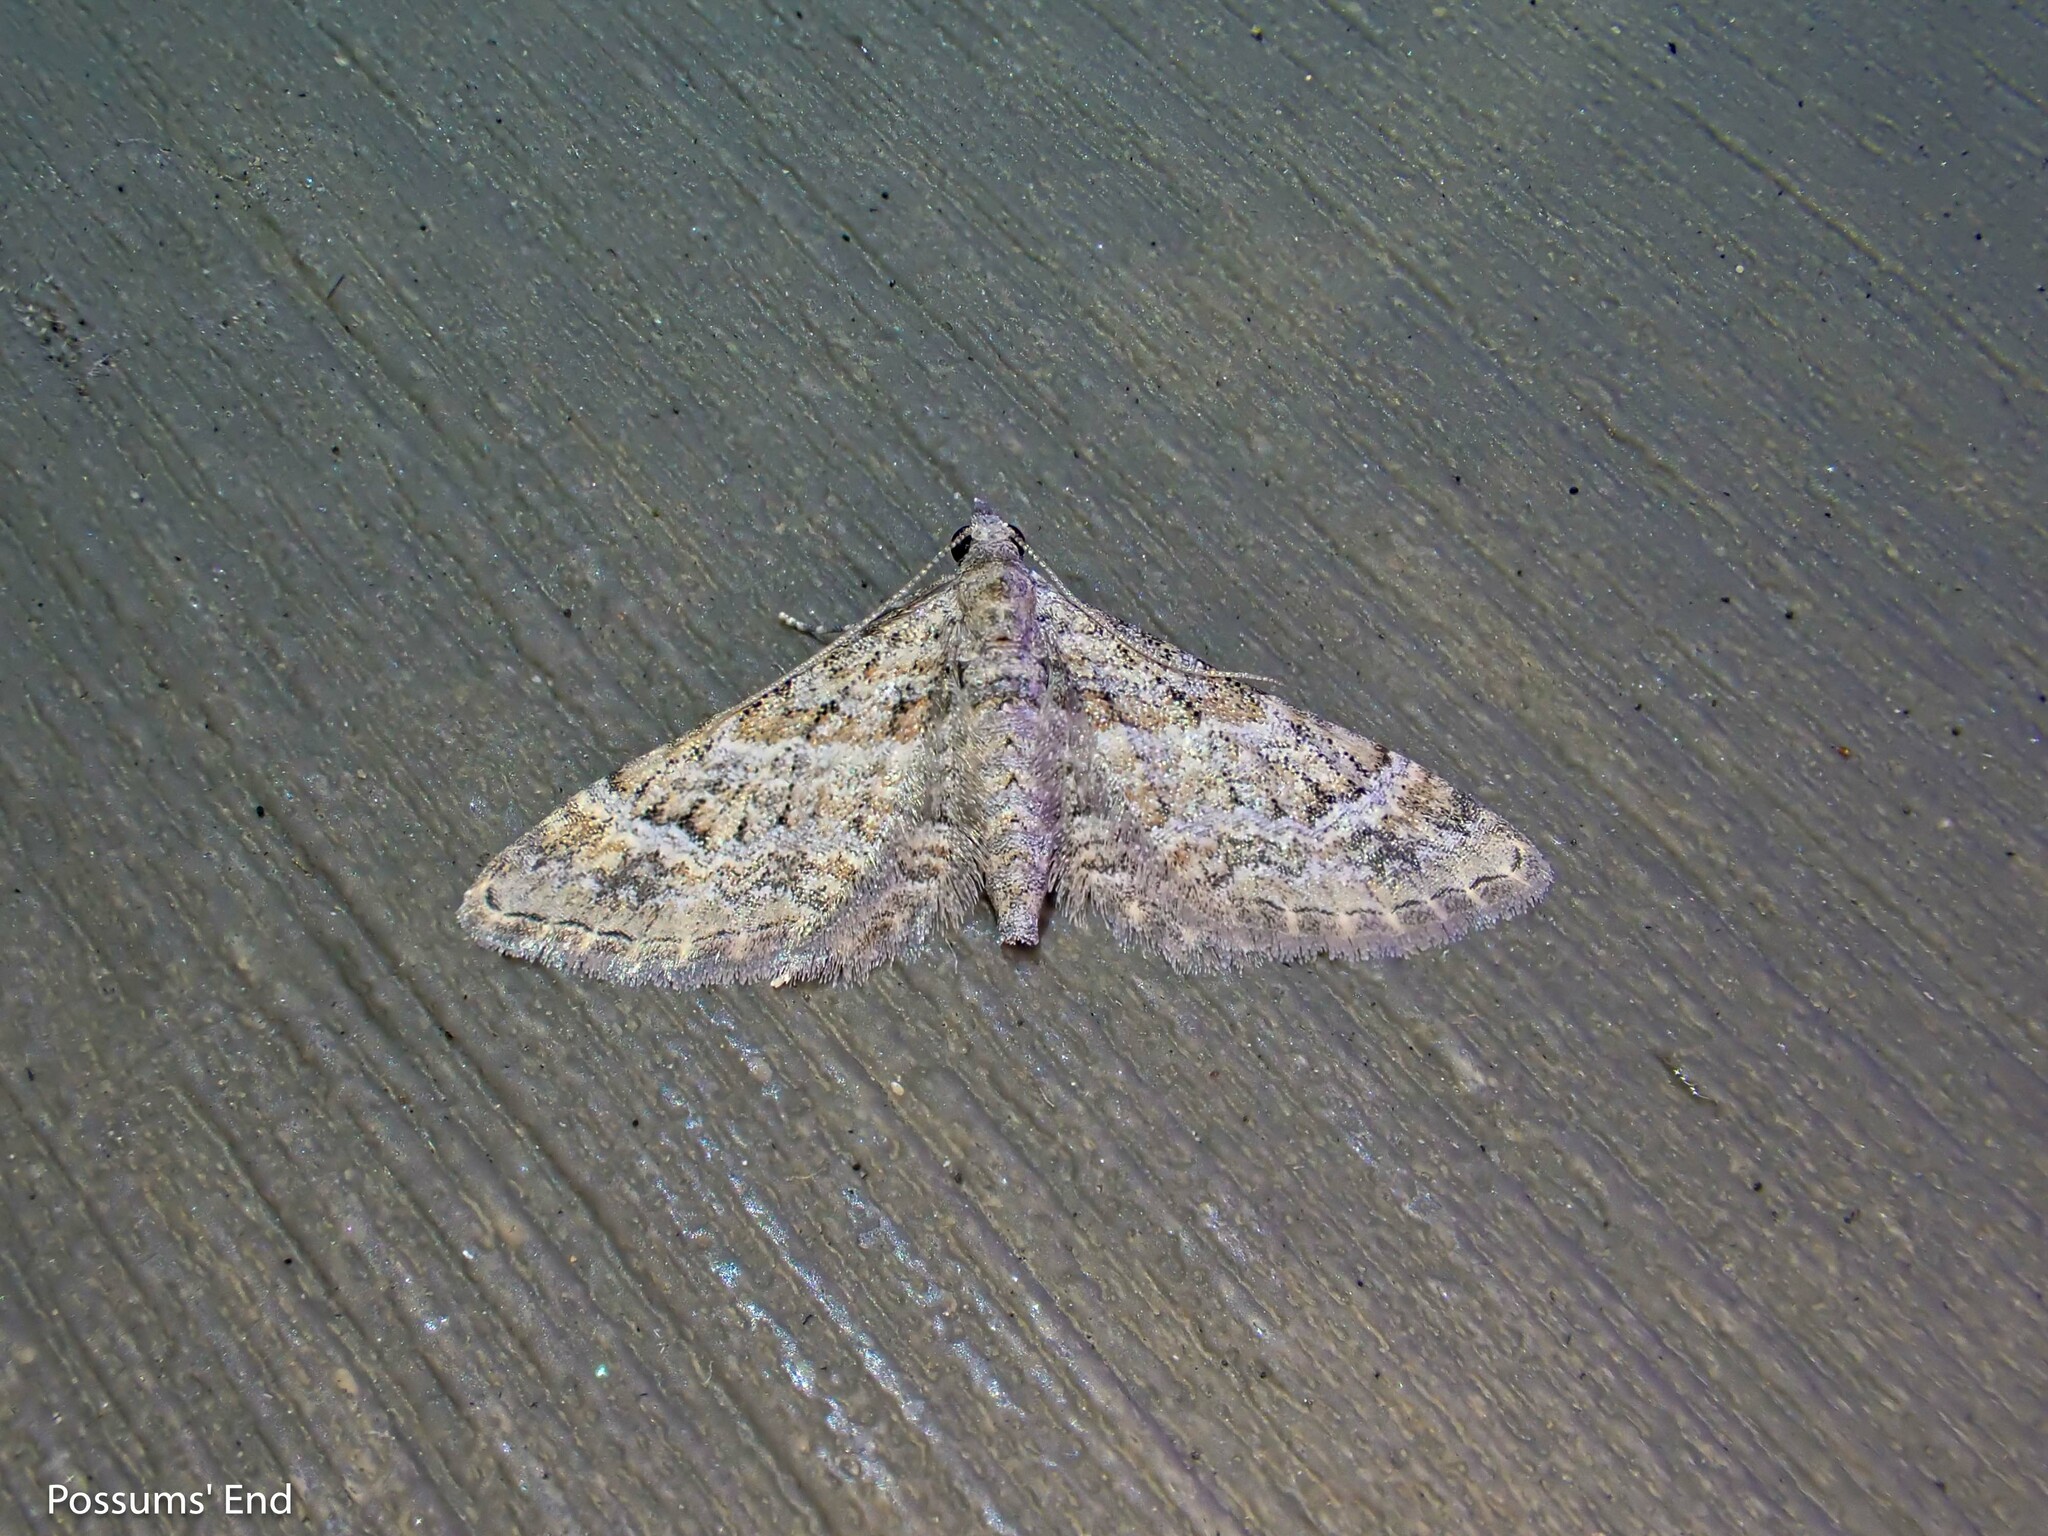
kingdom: Animalia
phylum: Arthropoda
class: Insecta
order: Lepidoptera
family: Geometridae
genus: Gymnoscelis
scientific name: Gymnoscelis rufifasciata
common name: Double-striped pug
